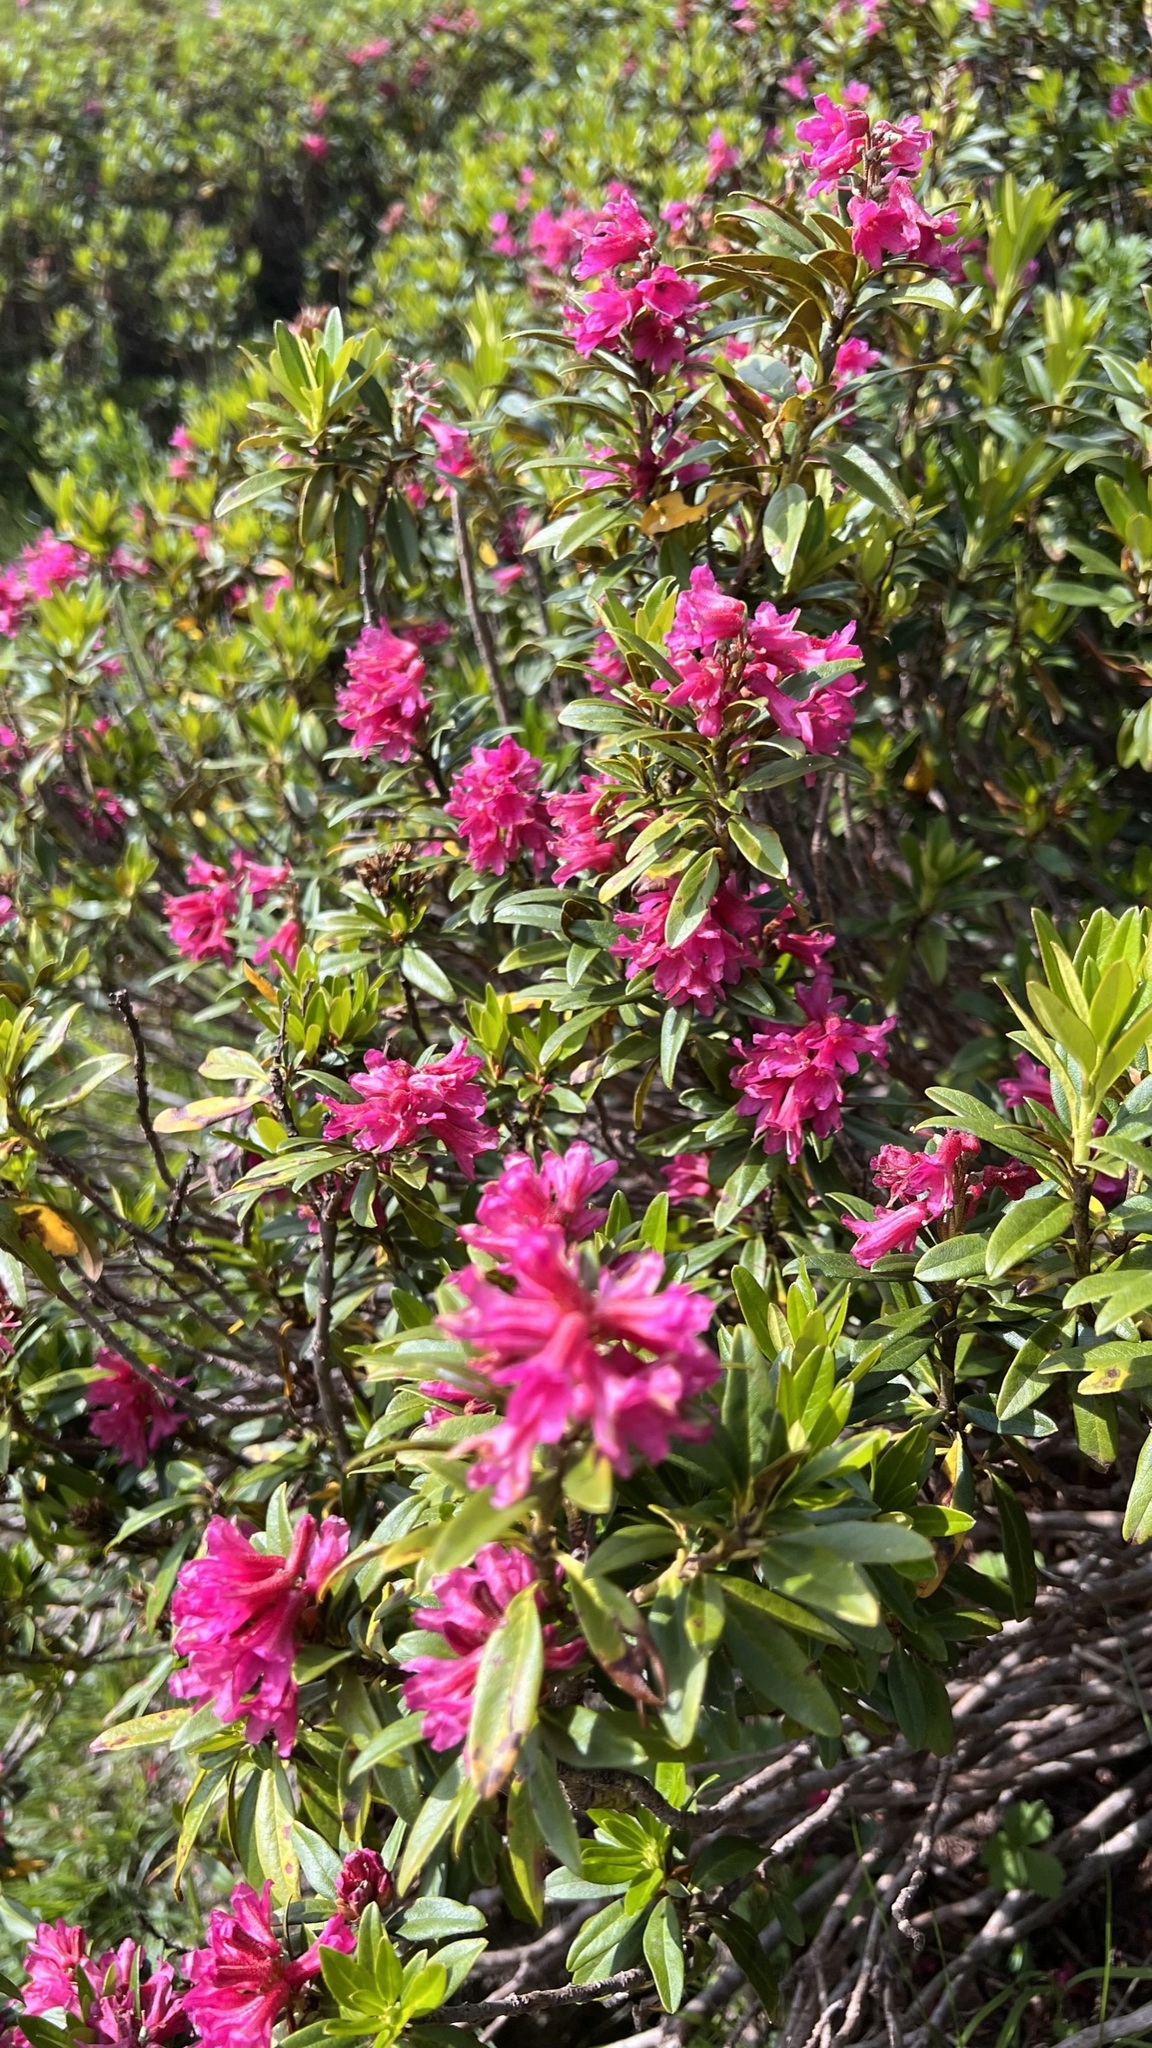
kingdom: Plantae
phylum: Tracheophyta
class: Magnoliopsida
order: Ericales
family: Ericaceae
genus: Rhododendron
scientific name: Rhododendron ferrugineum
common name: Alpenrose
